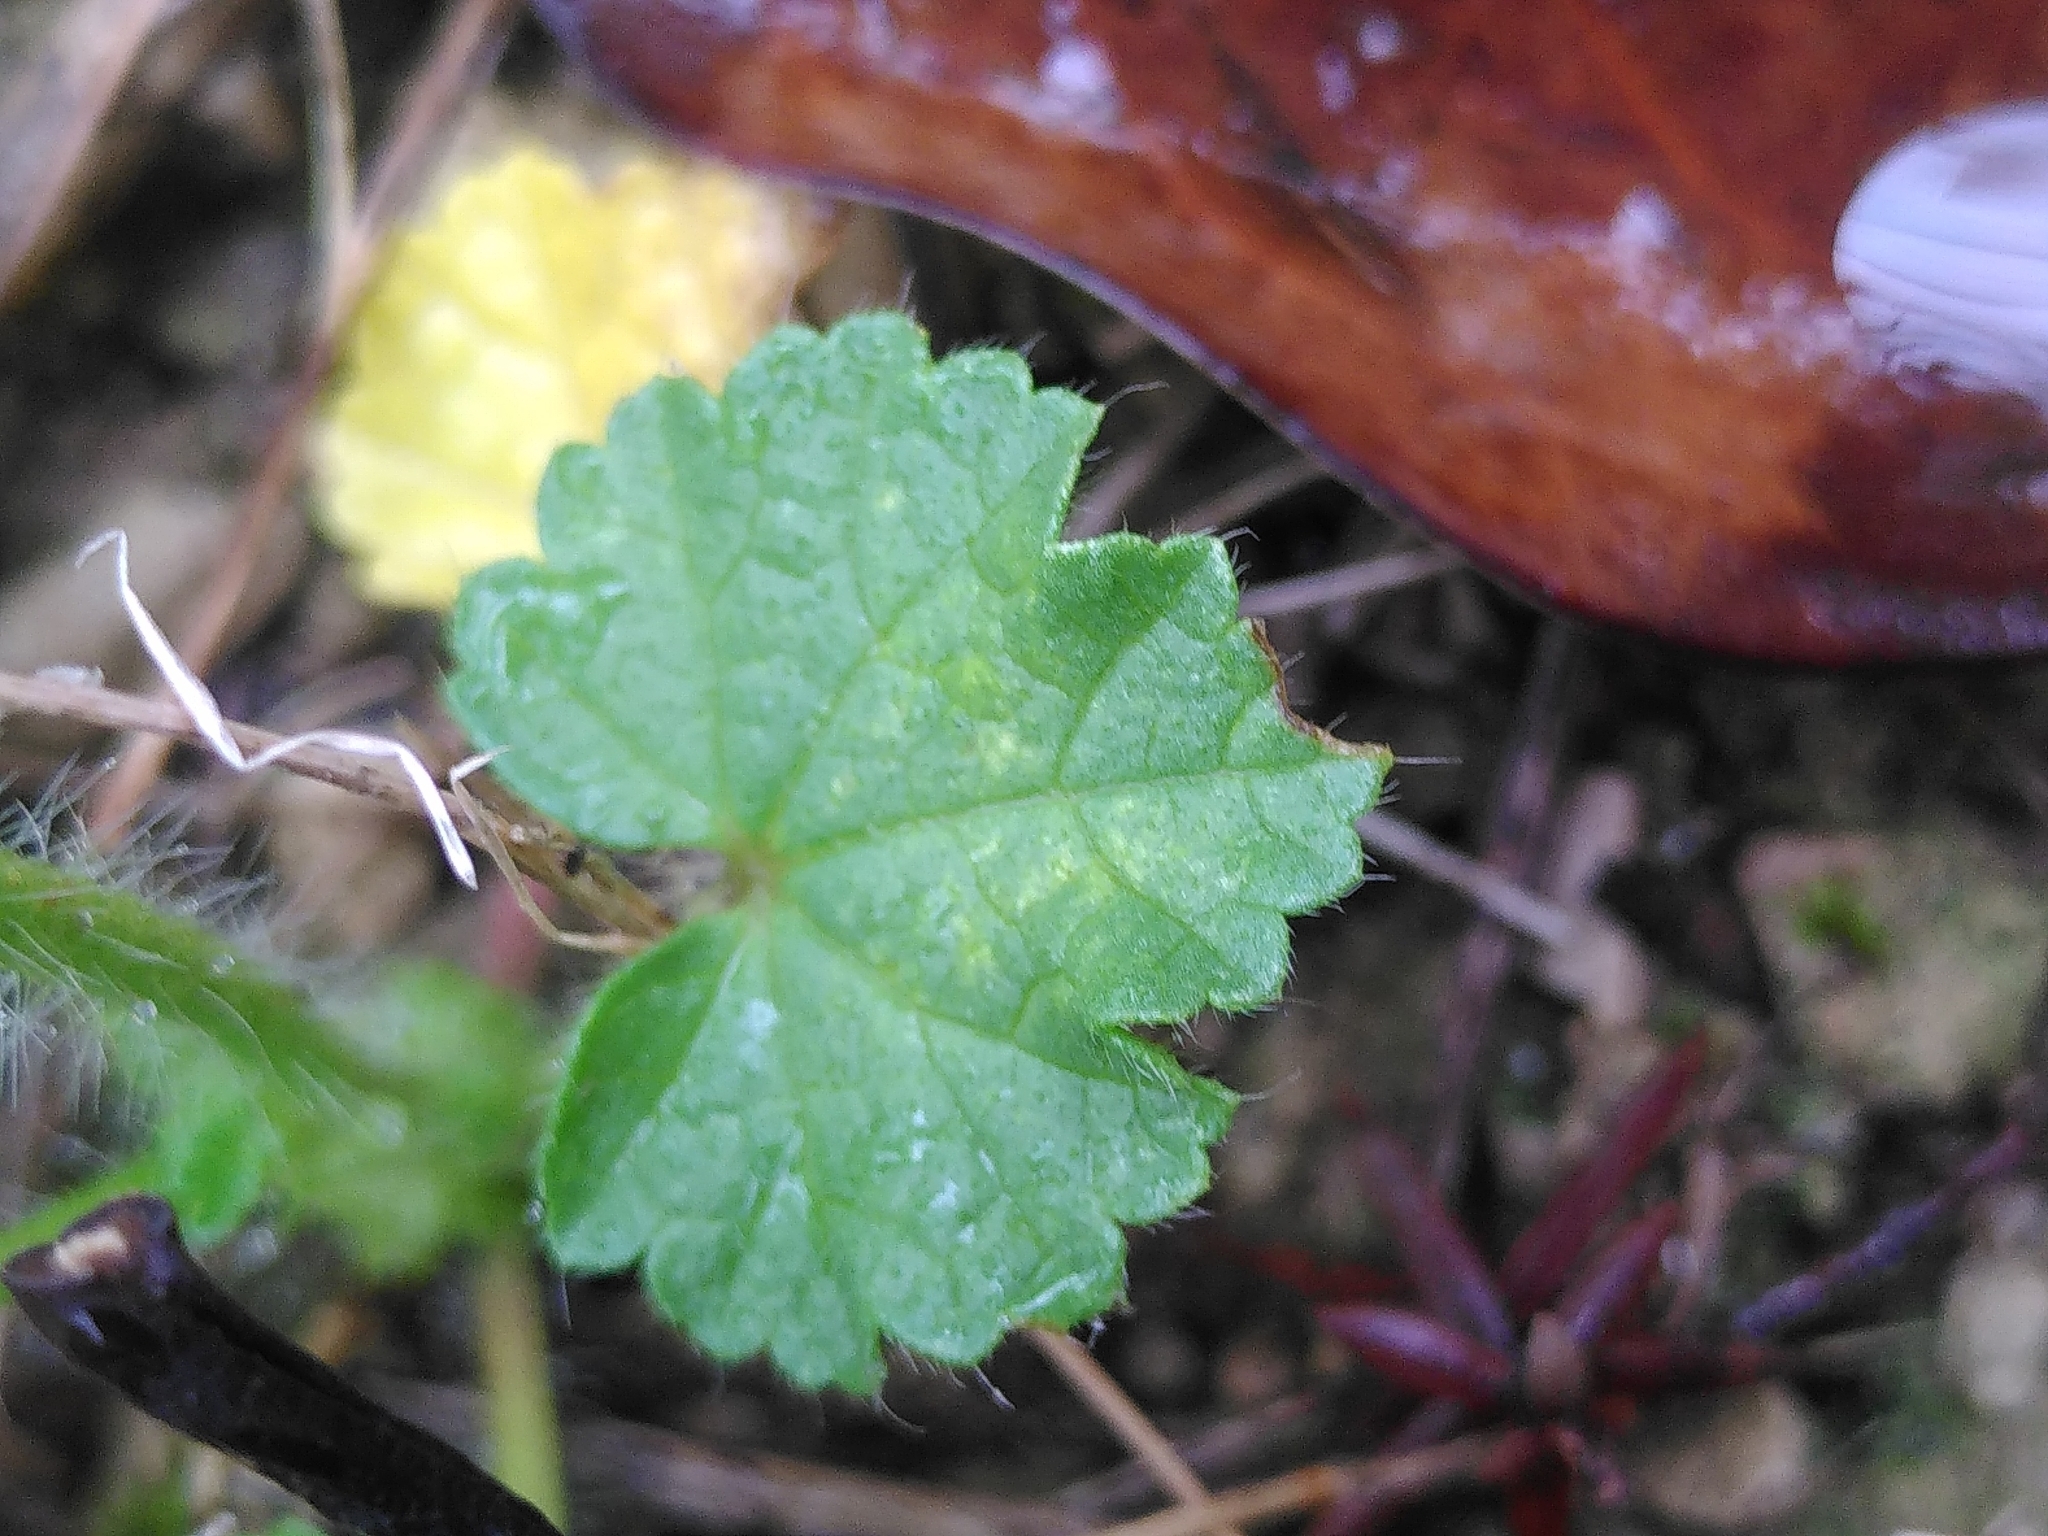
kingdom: Plantae
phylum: Tracheophyta
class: Magnoliopsida
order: Malvales
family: Malvaceae
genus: Althaea
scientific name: Althaea hirsuta
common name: Rough marsh-mallow
